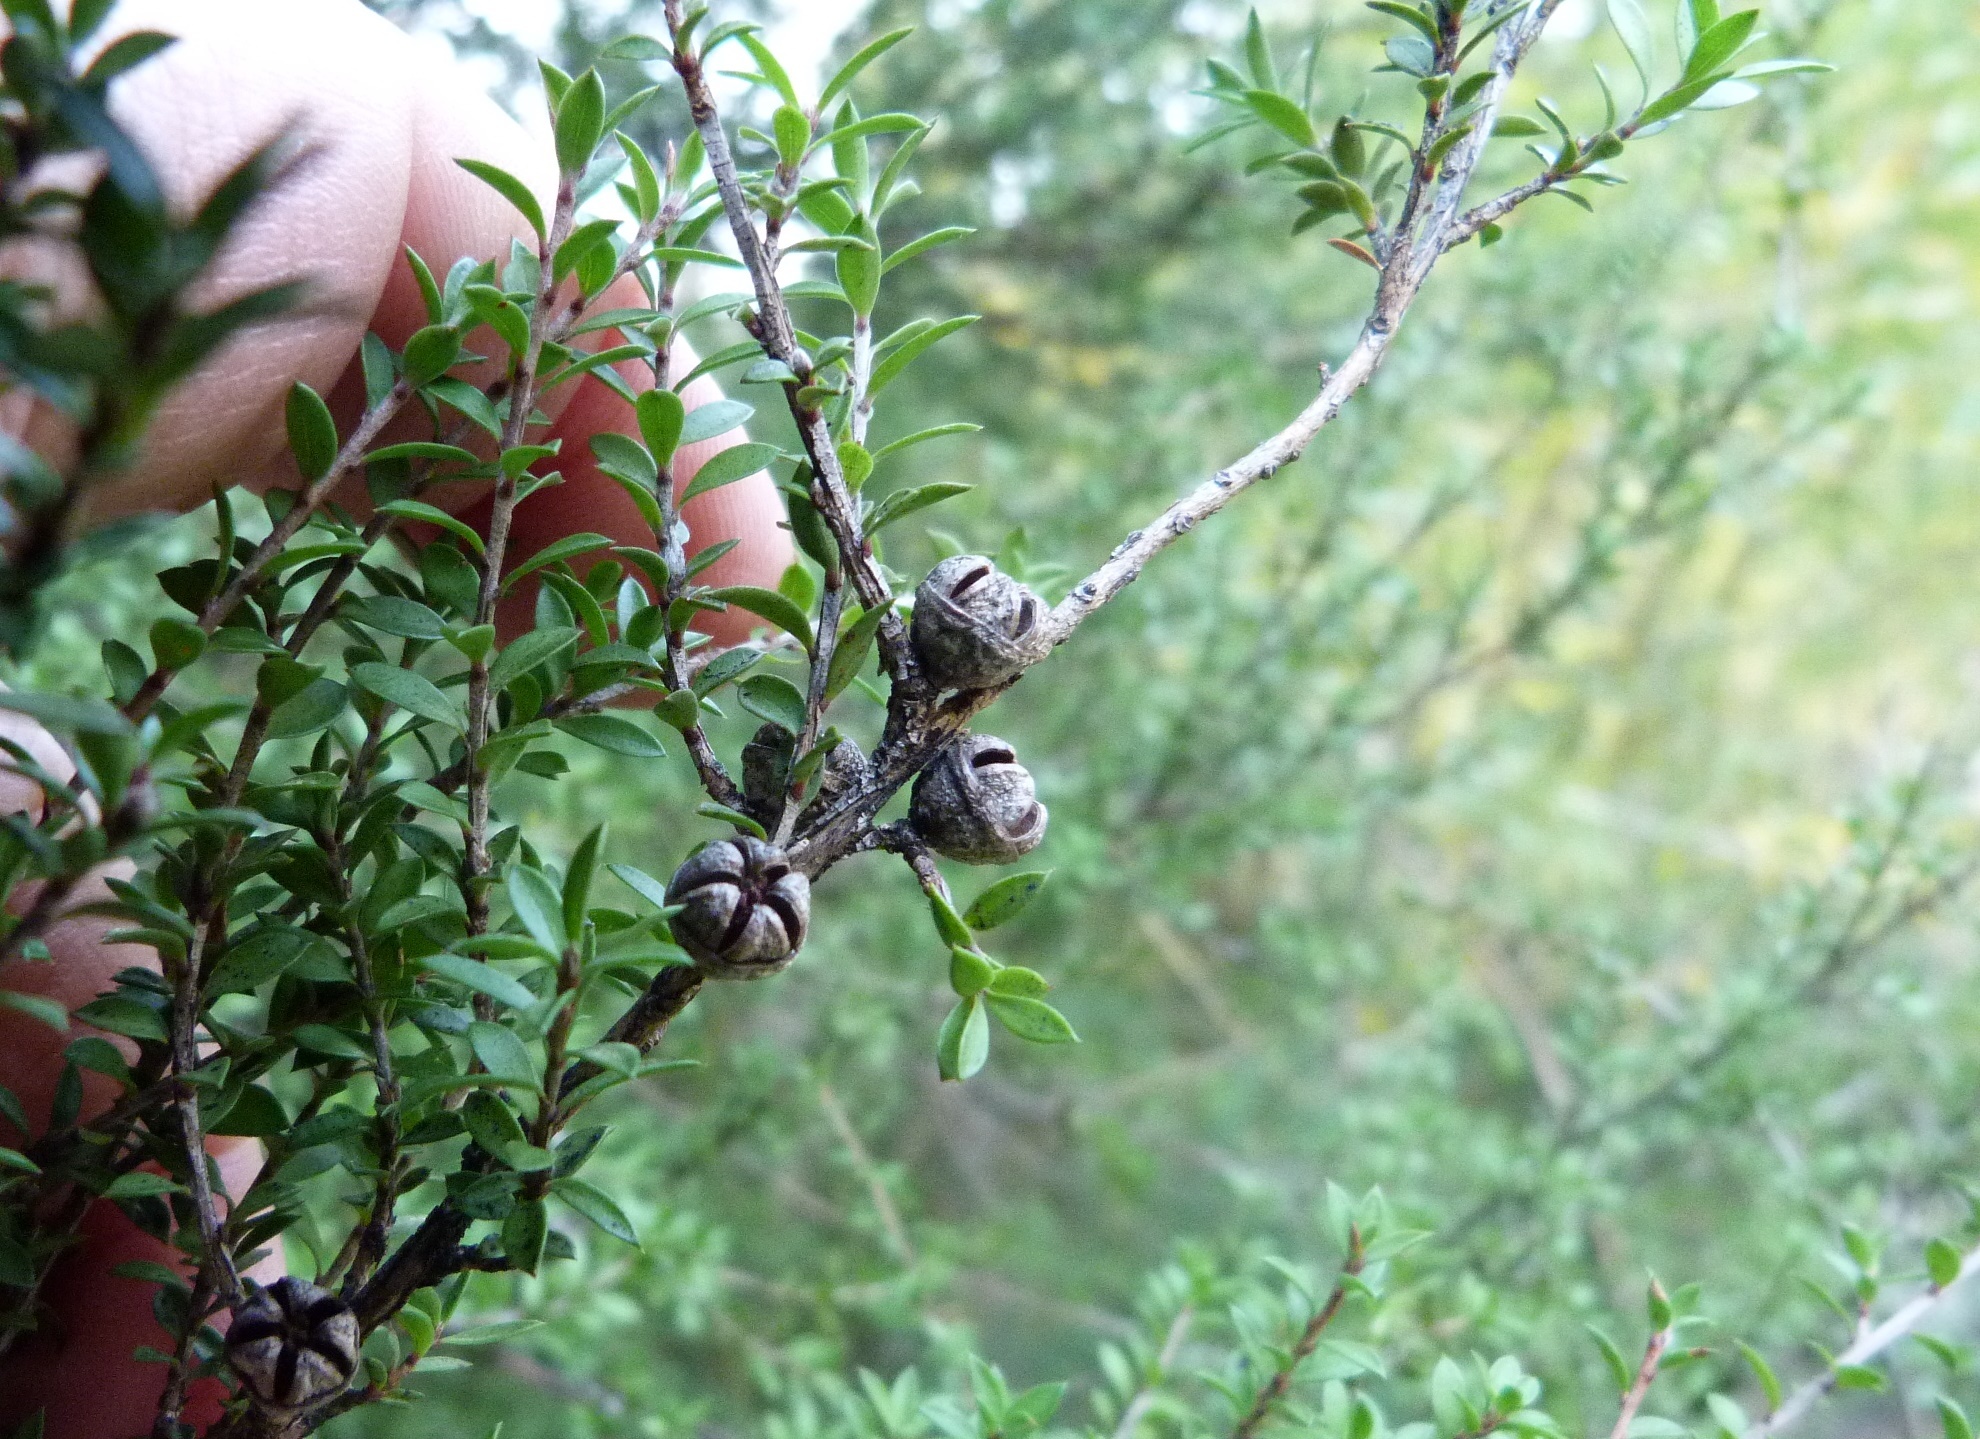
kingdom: Plantae
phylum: Tracheophyta
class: Magnoliopsida
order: Myrtales
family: Myrtaceae
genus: Leptospermum
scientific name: Leptospermum scoparium
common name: Broom tea-tree
